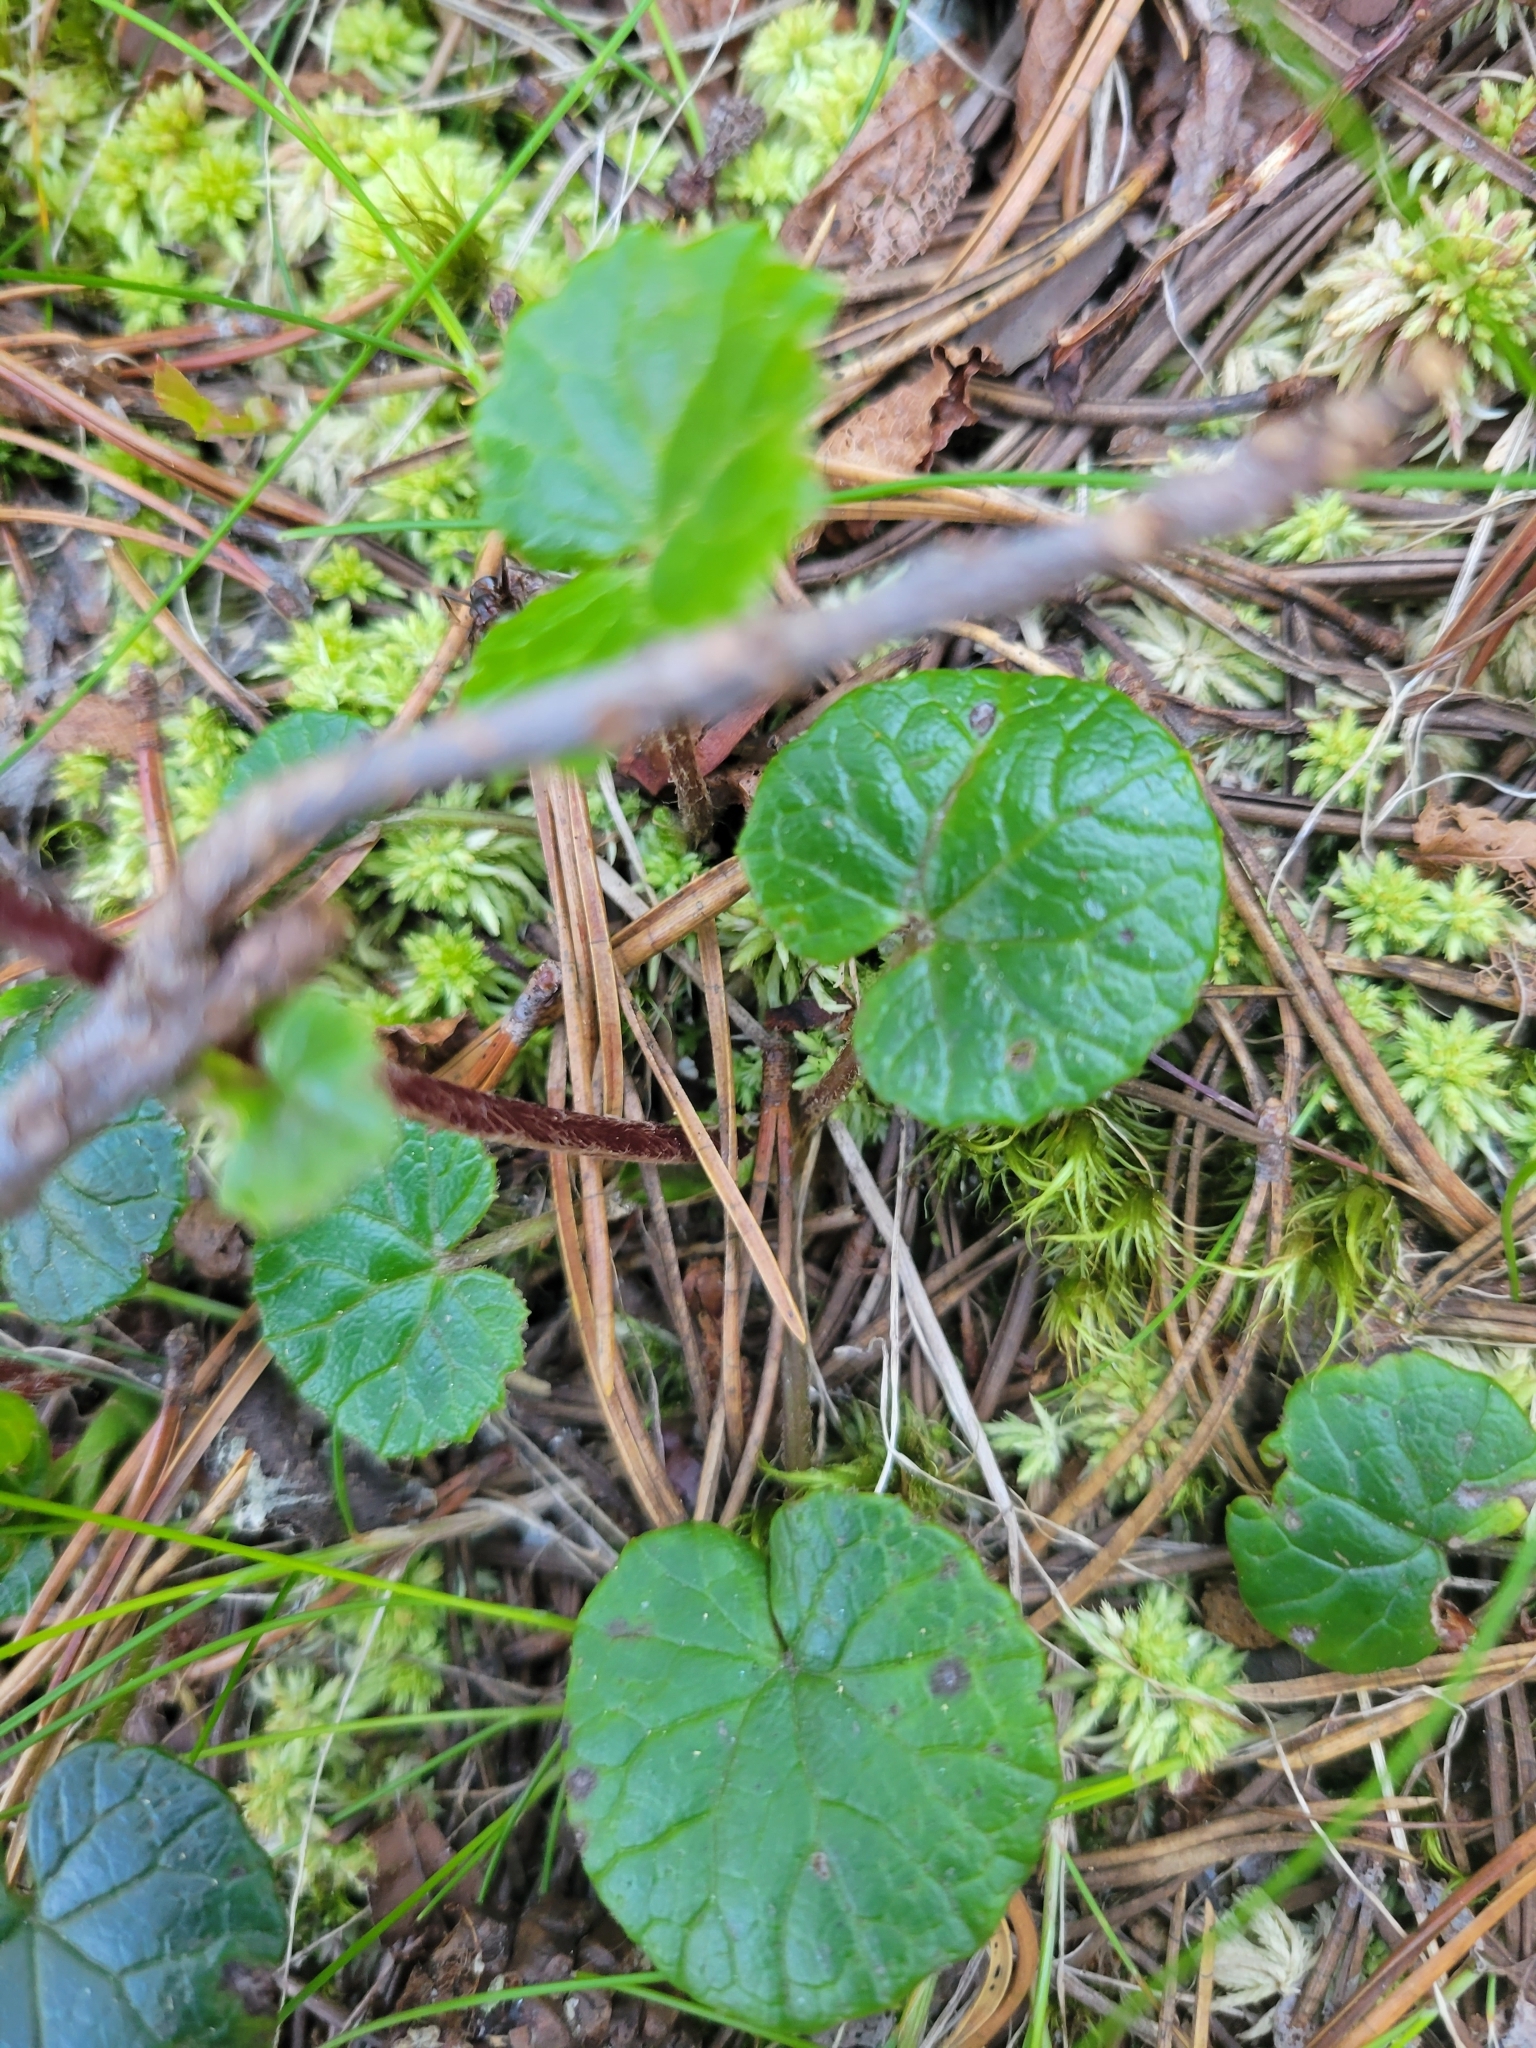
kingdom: Plantae
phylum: Tracheophyta
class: Magnoliopsida
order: Asterales
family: Asteraceae
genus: Homogyne
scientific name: Homogyne alpina
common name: Purple colt's-foot
